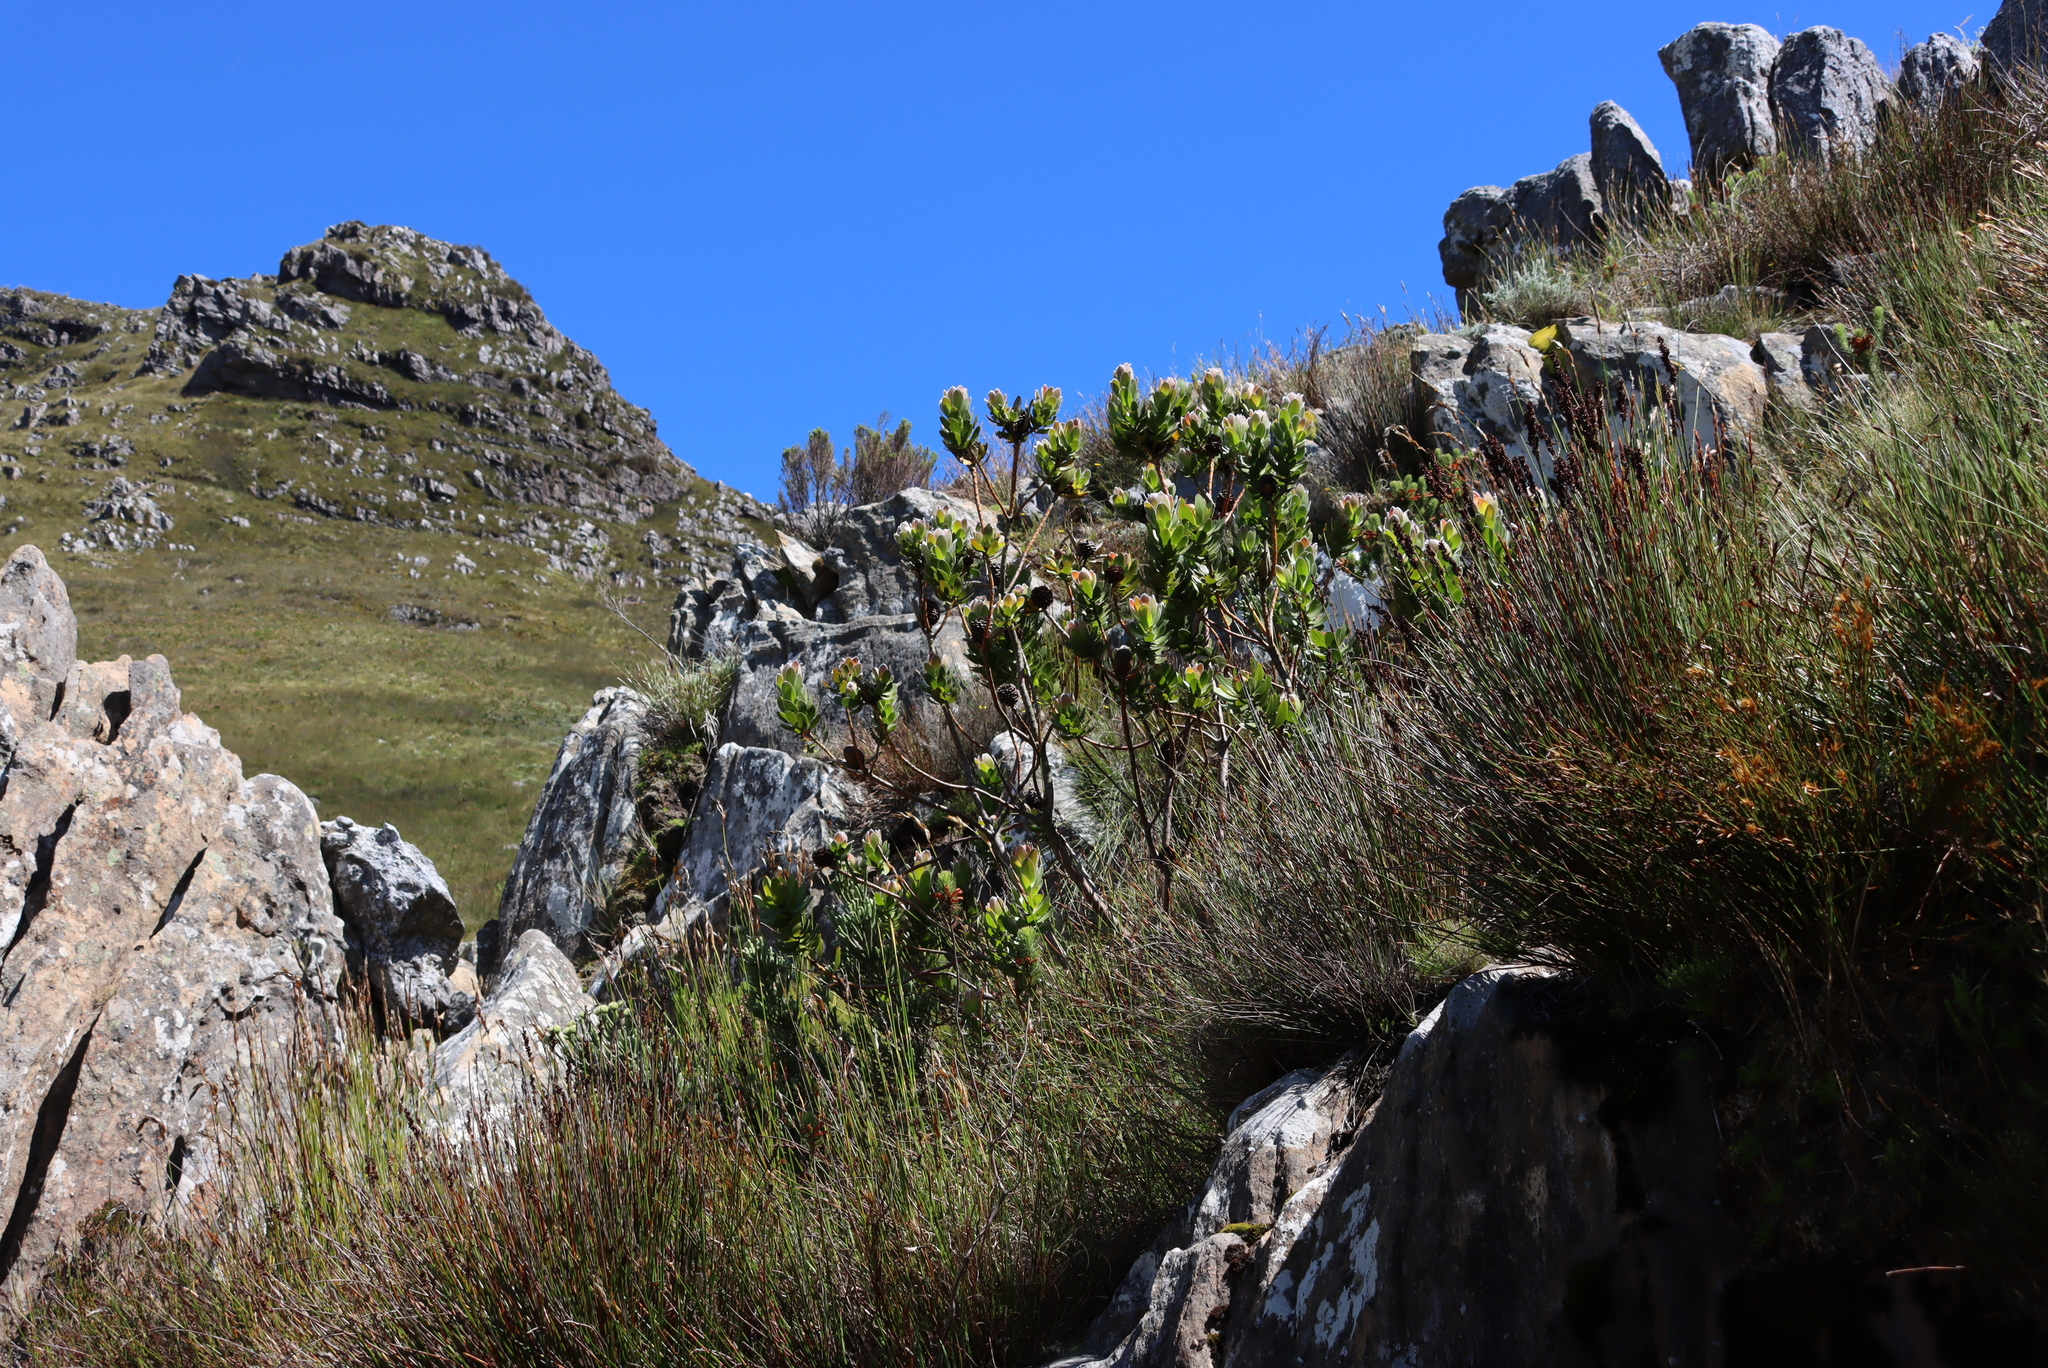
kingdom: Plantae
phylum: Tracheophyta
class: Magnoliopsida
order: Proteales
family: Proteaceae
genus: Leucadendron
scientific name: Leucadendron gandogeri
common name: Broad-leaf conebush
